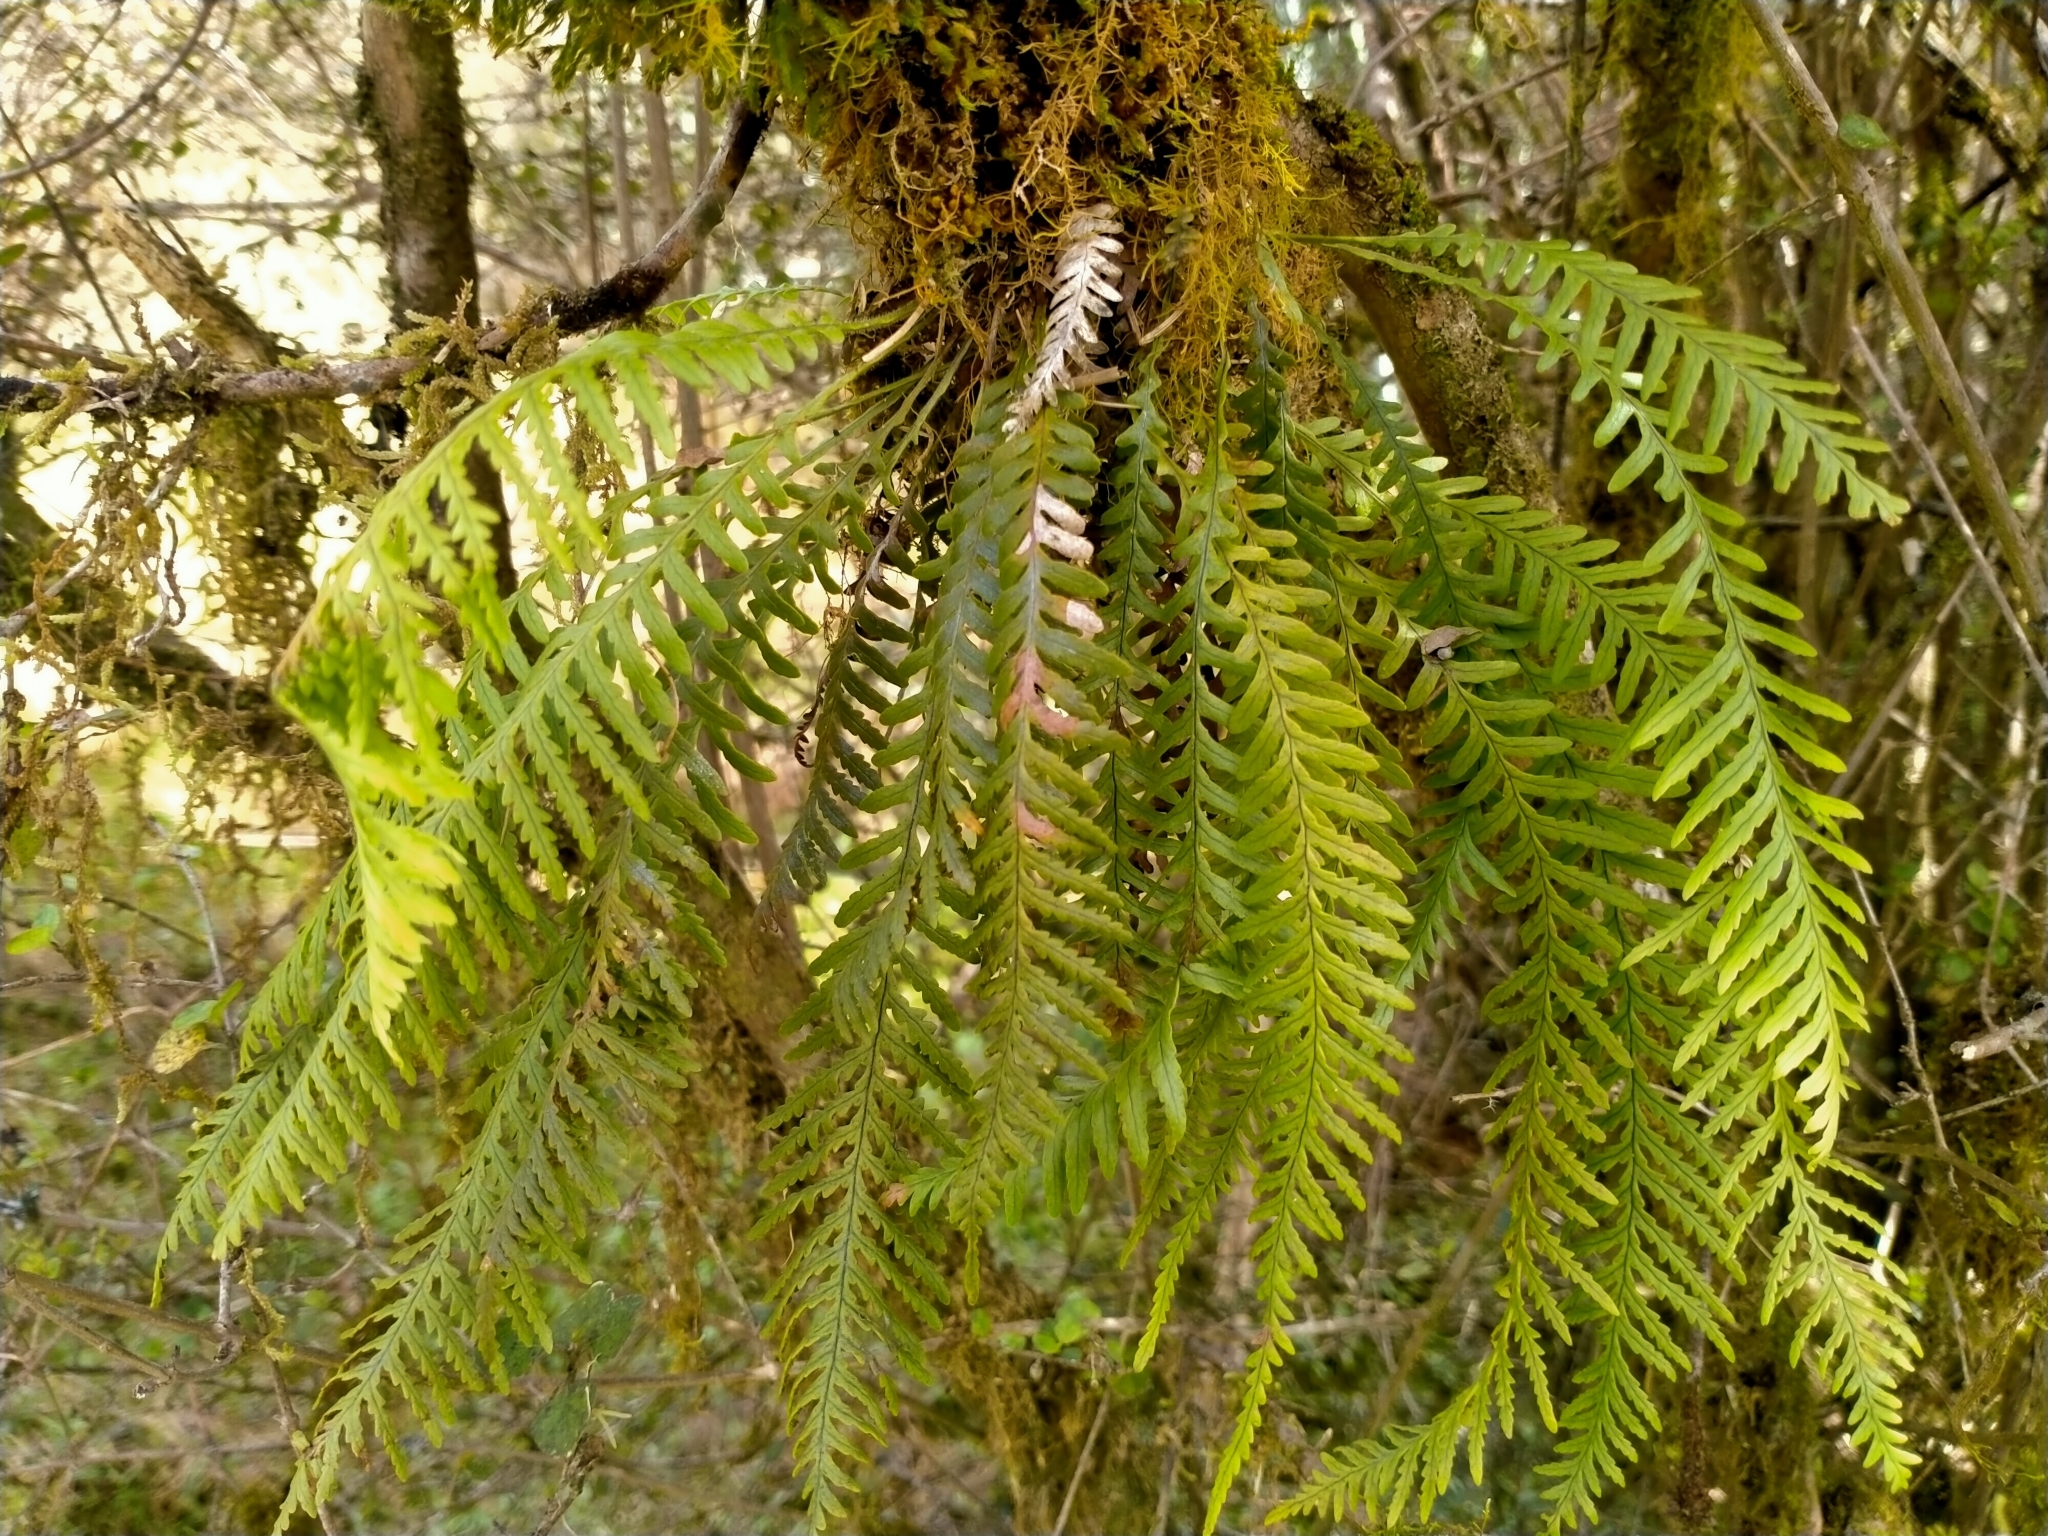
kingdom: Plantae
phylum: Tracheophyta
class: Polypodiopsida
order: Polypodiales
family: Polypodiaceae
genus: Notogrammitis
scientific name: Notogrammitis heterophylla
